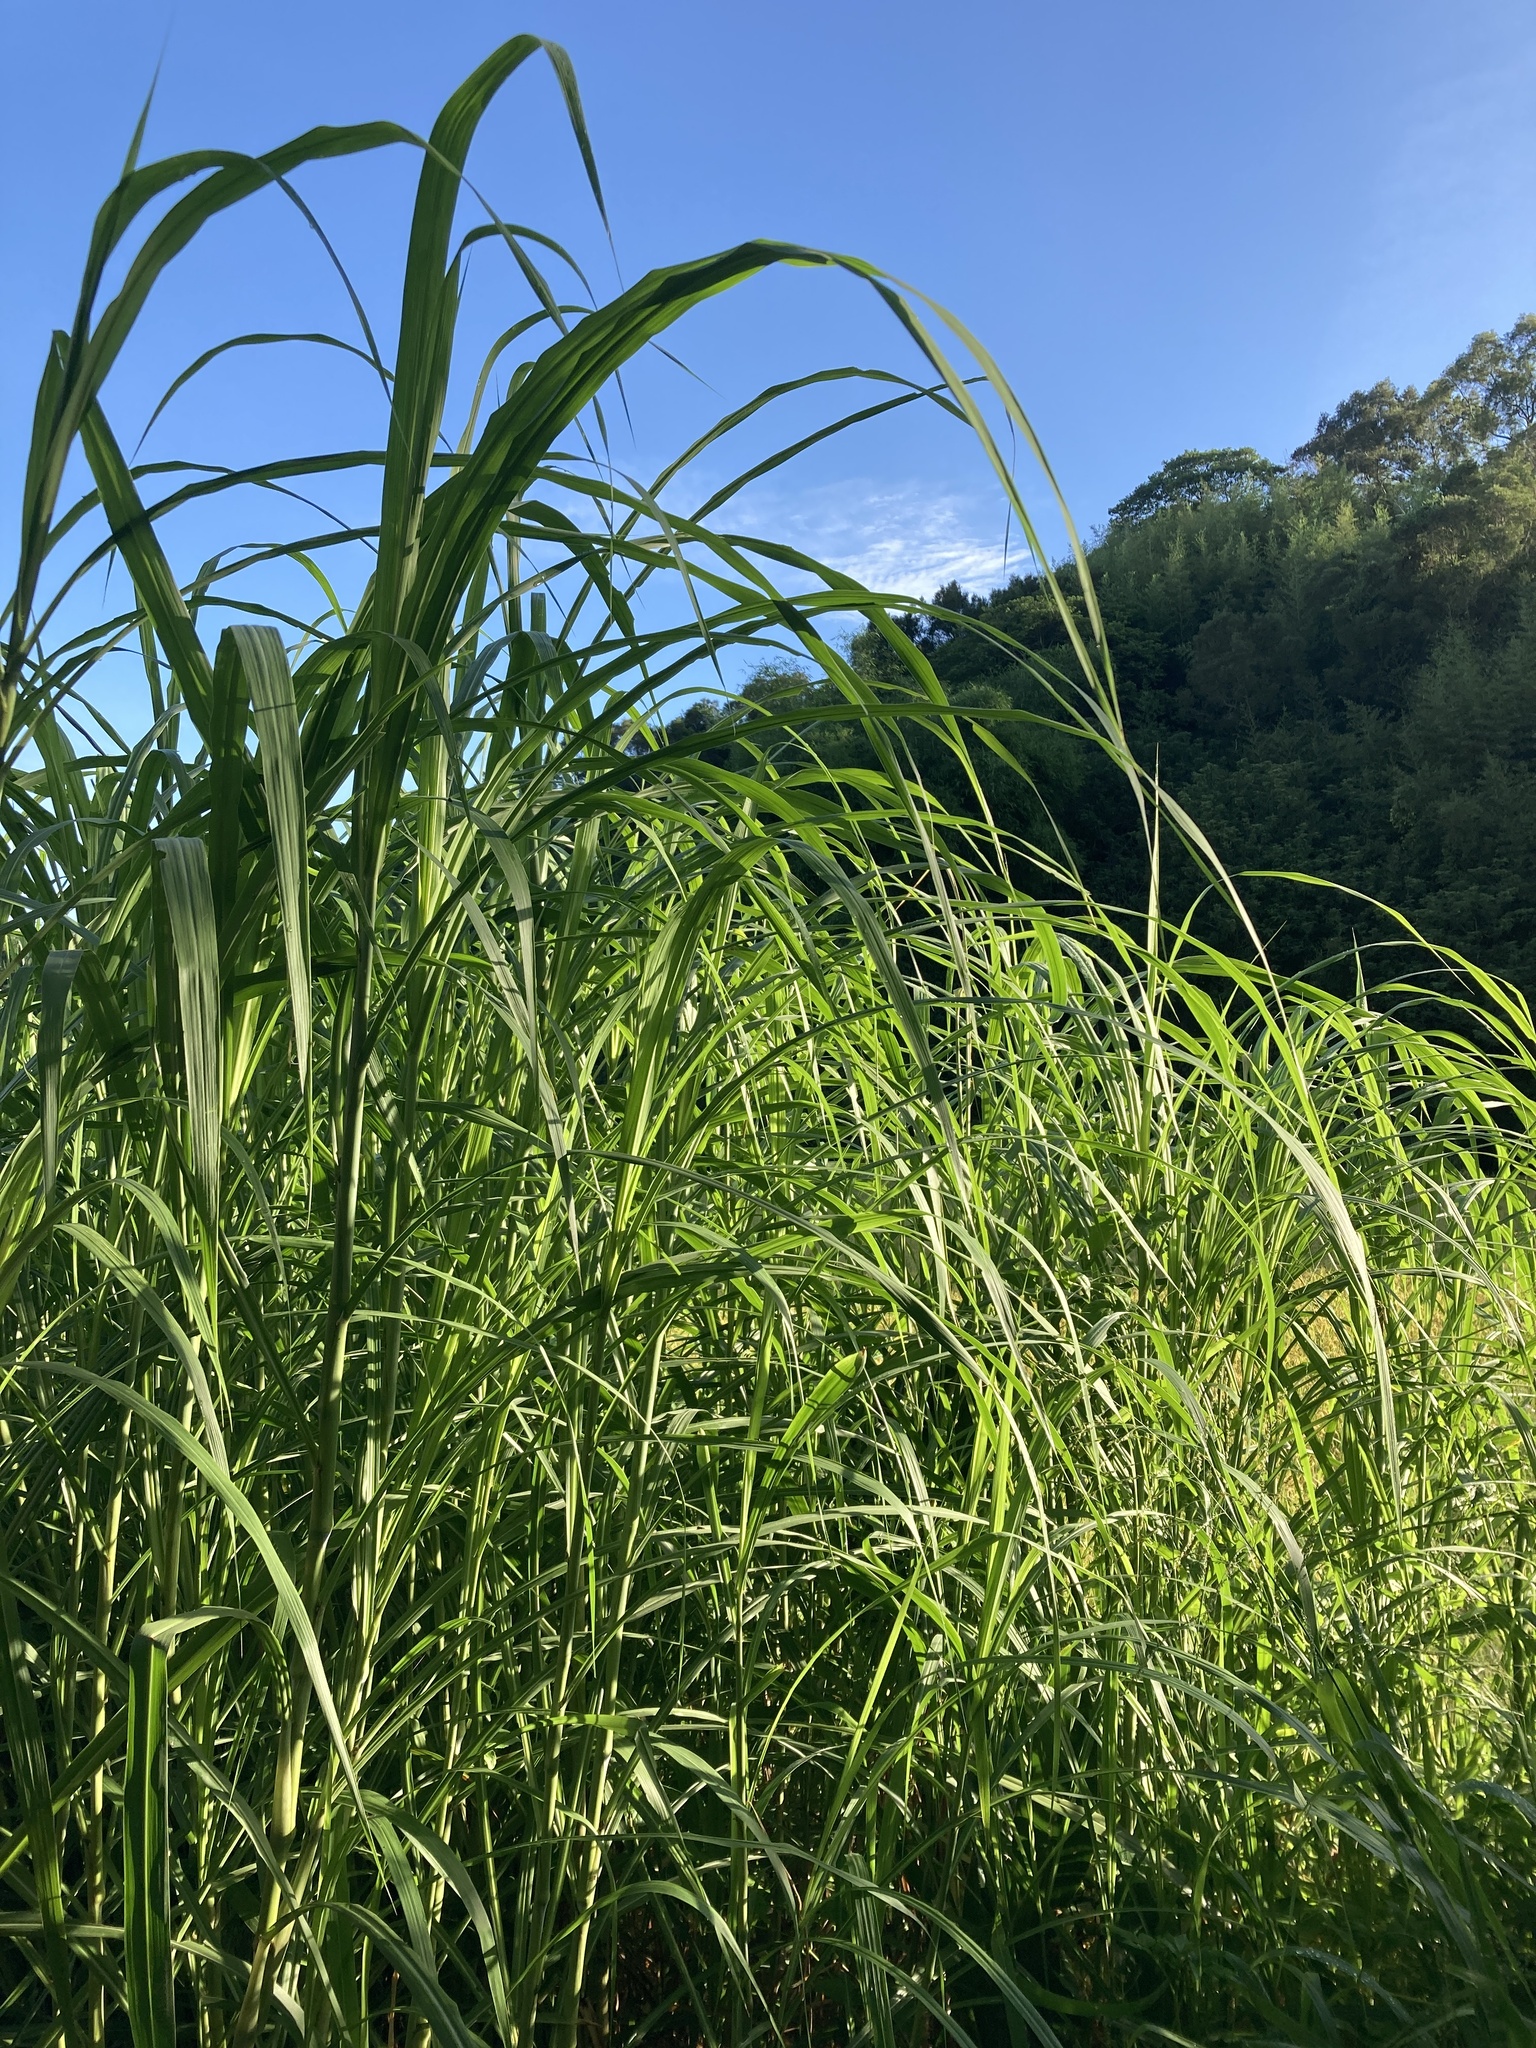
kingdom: Plantae
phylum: Tracheophyta
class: Liliopsida
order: Poales
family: Poaceae
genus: Cenchrus
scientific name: Cenchrus purpureus
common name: Elephant grass
